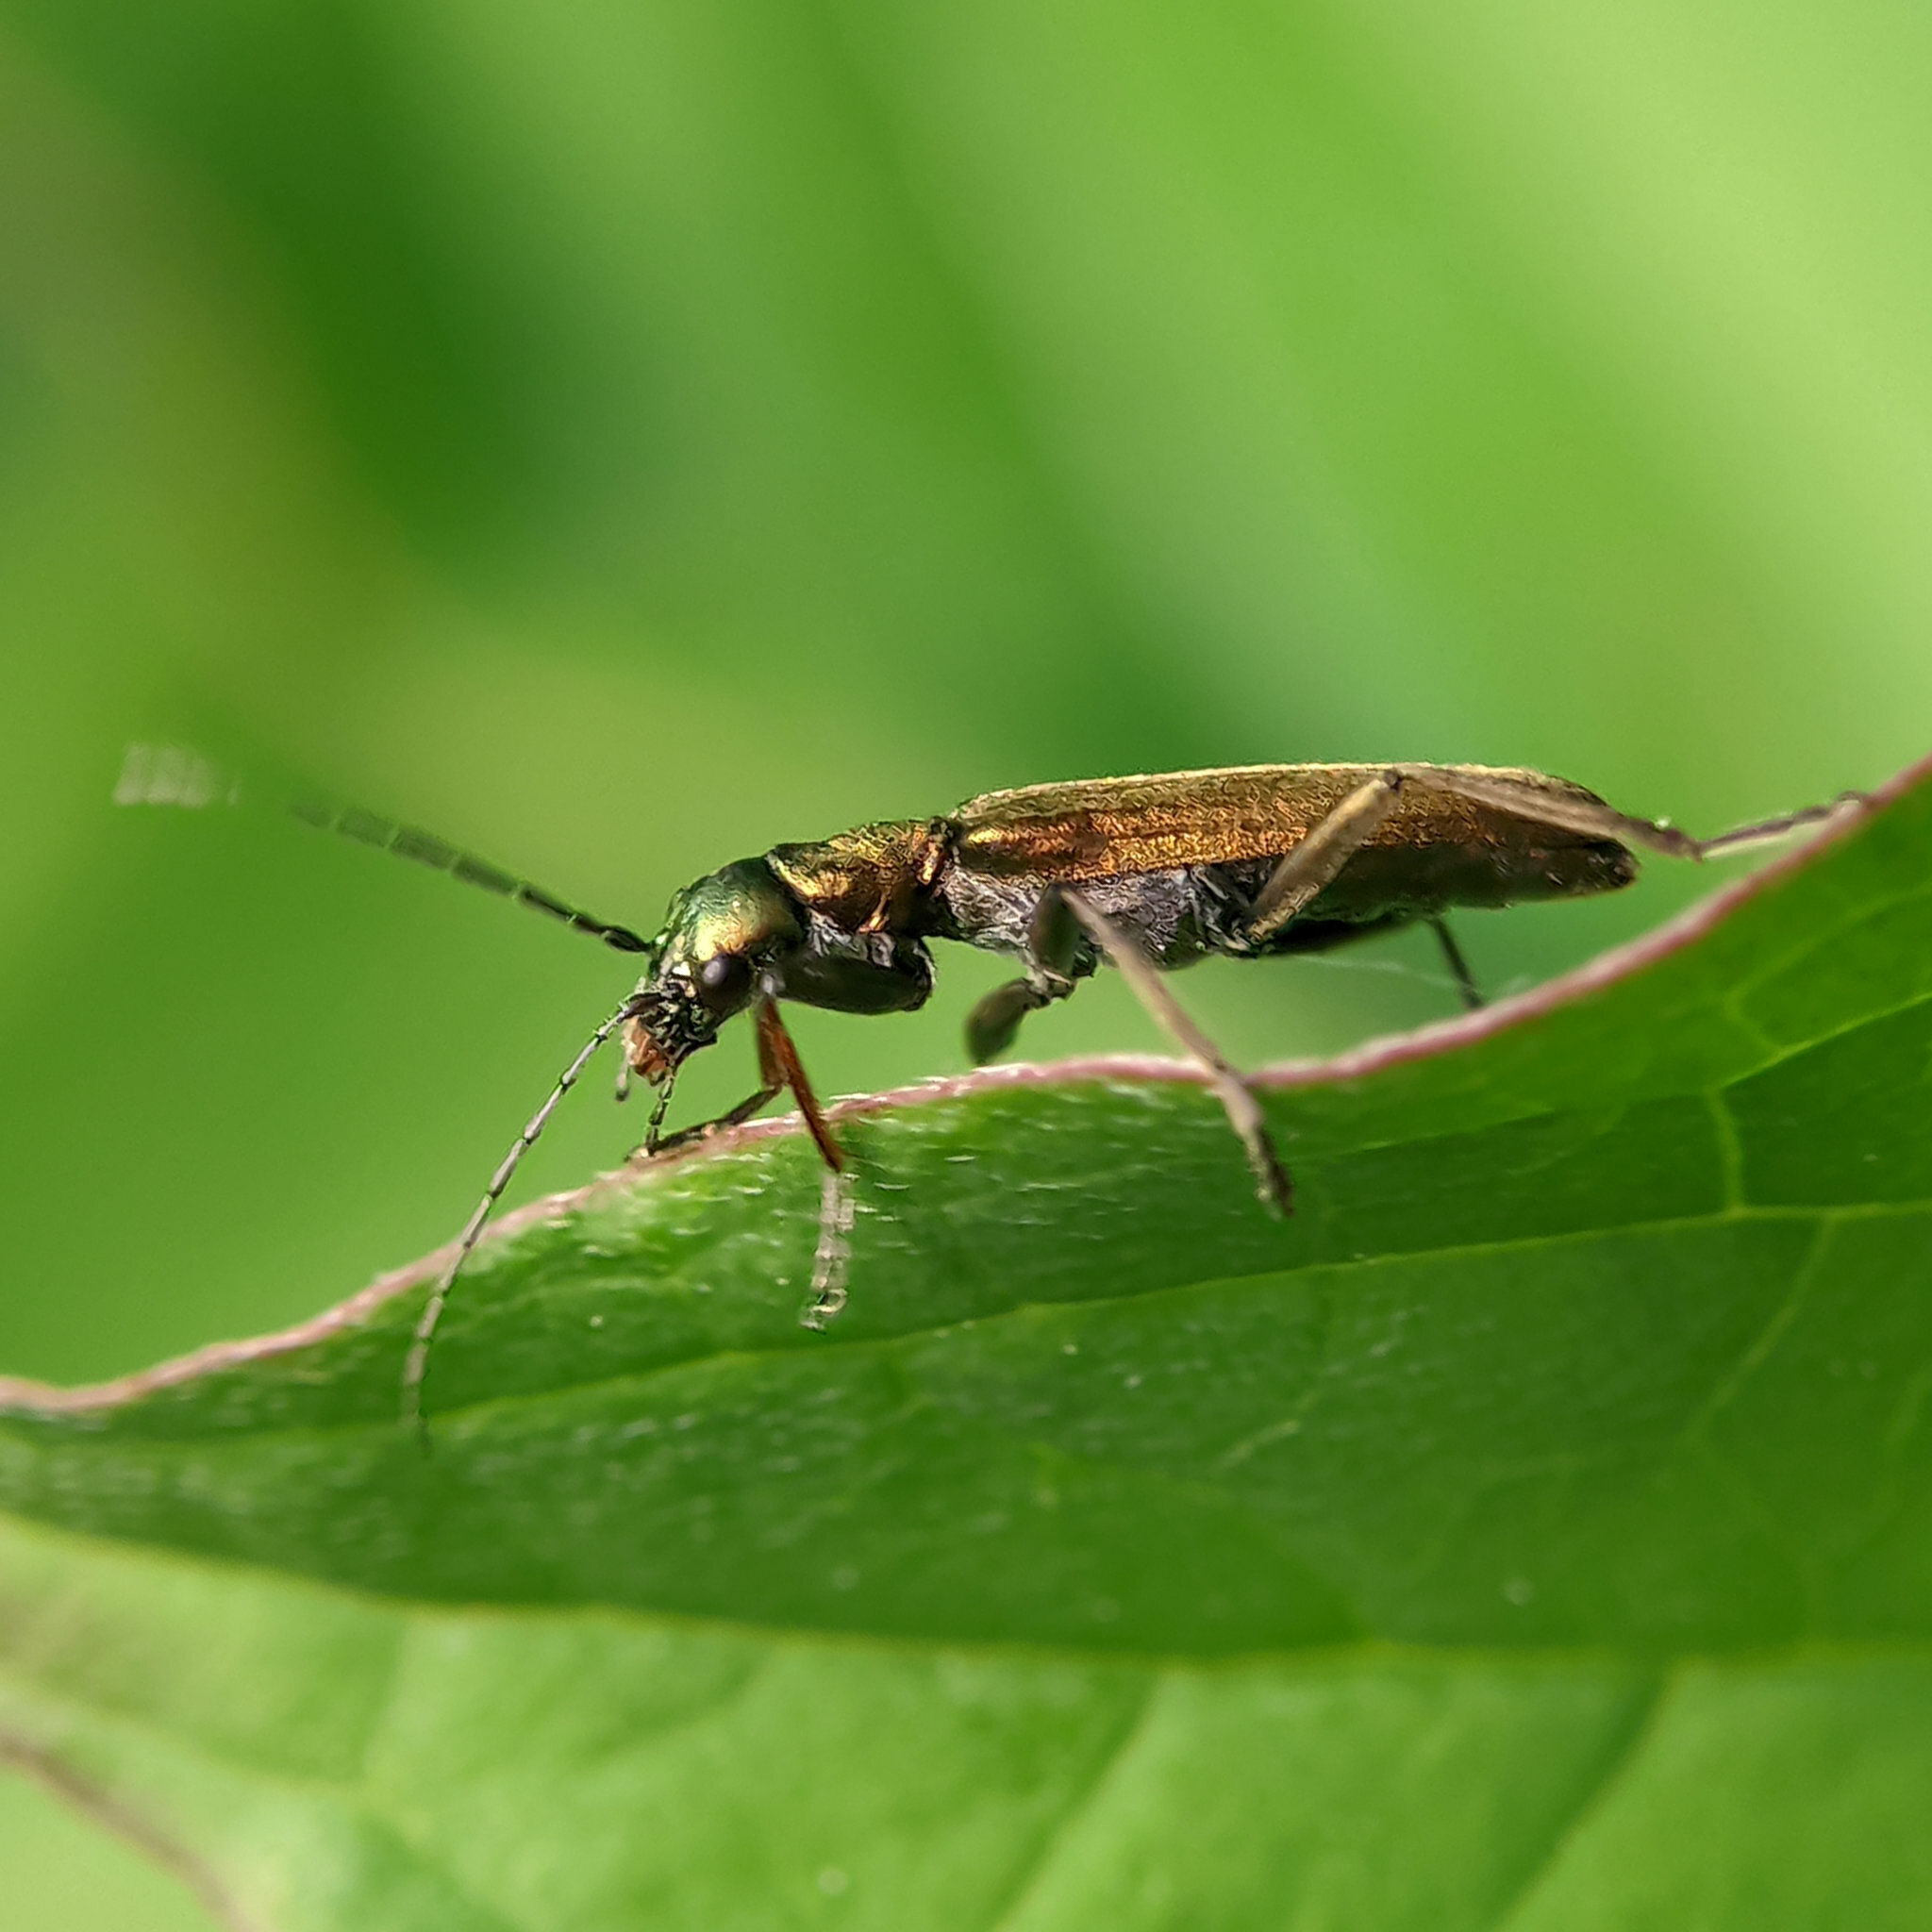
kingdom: Animalia
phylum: Arthropoda
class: Insecta
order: Coleoptera
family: Oedemeridae
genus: Chrysanthia
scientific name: Chrysanthia viridissima
